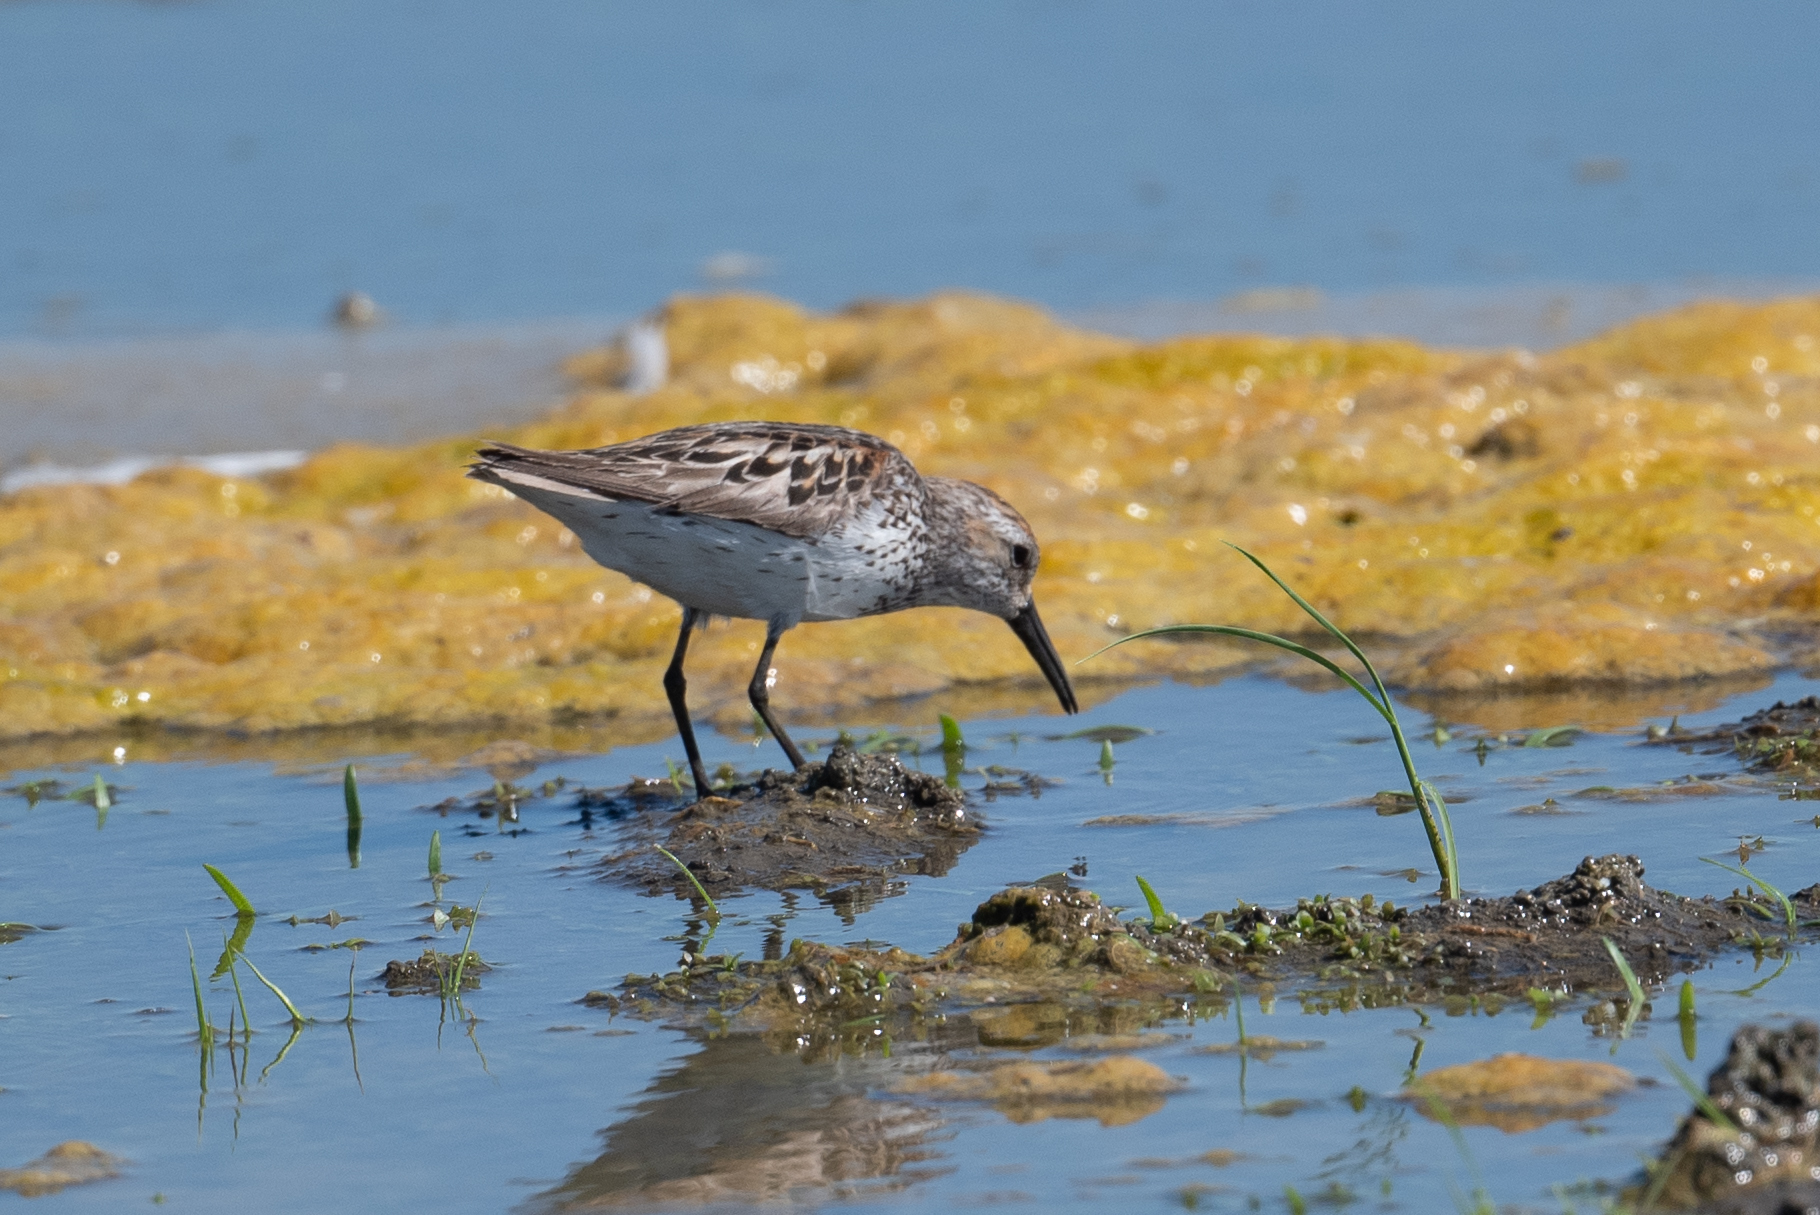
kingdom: Animalia
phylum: Chordata
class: Aves
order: Charadriiformes
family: Scolopacidae
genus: Calidris
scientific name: Calidris mauri
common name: Western sandpiper
